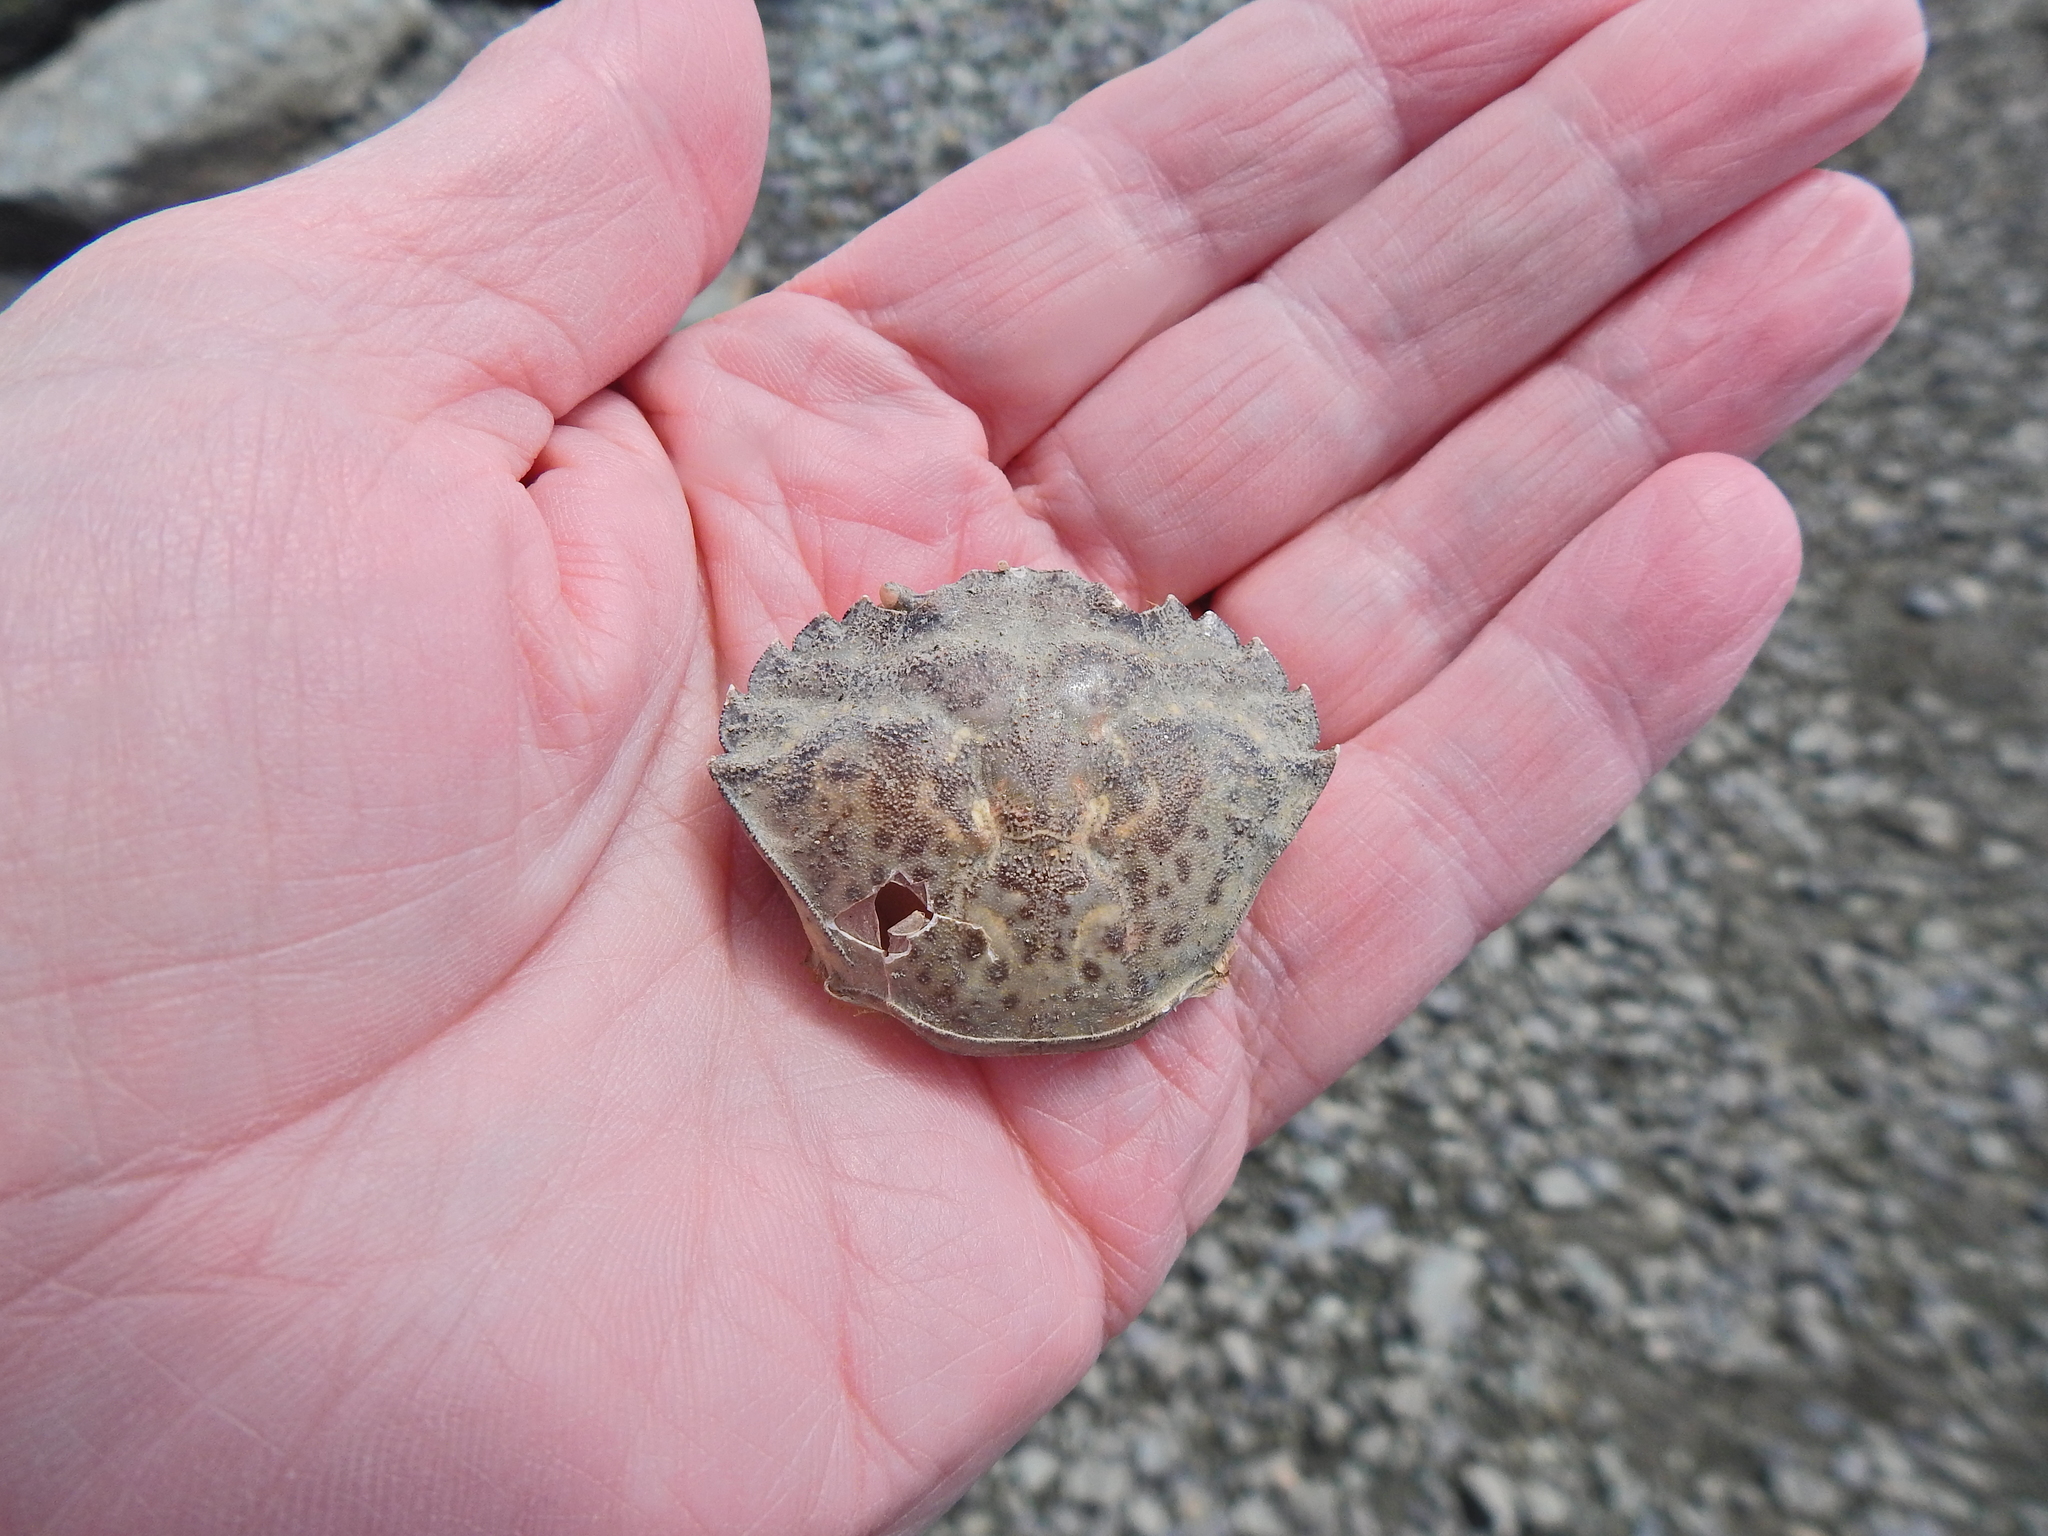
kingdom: Animalia
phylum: Arthropoda
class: Malacostraca
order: Decapoda
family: Carcinidae
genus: Carcinus
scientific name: Carcinus maenas
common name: European green crab
